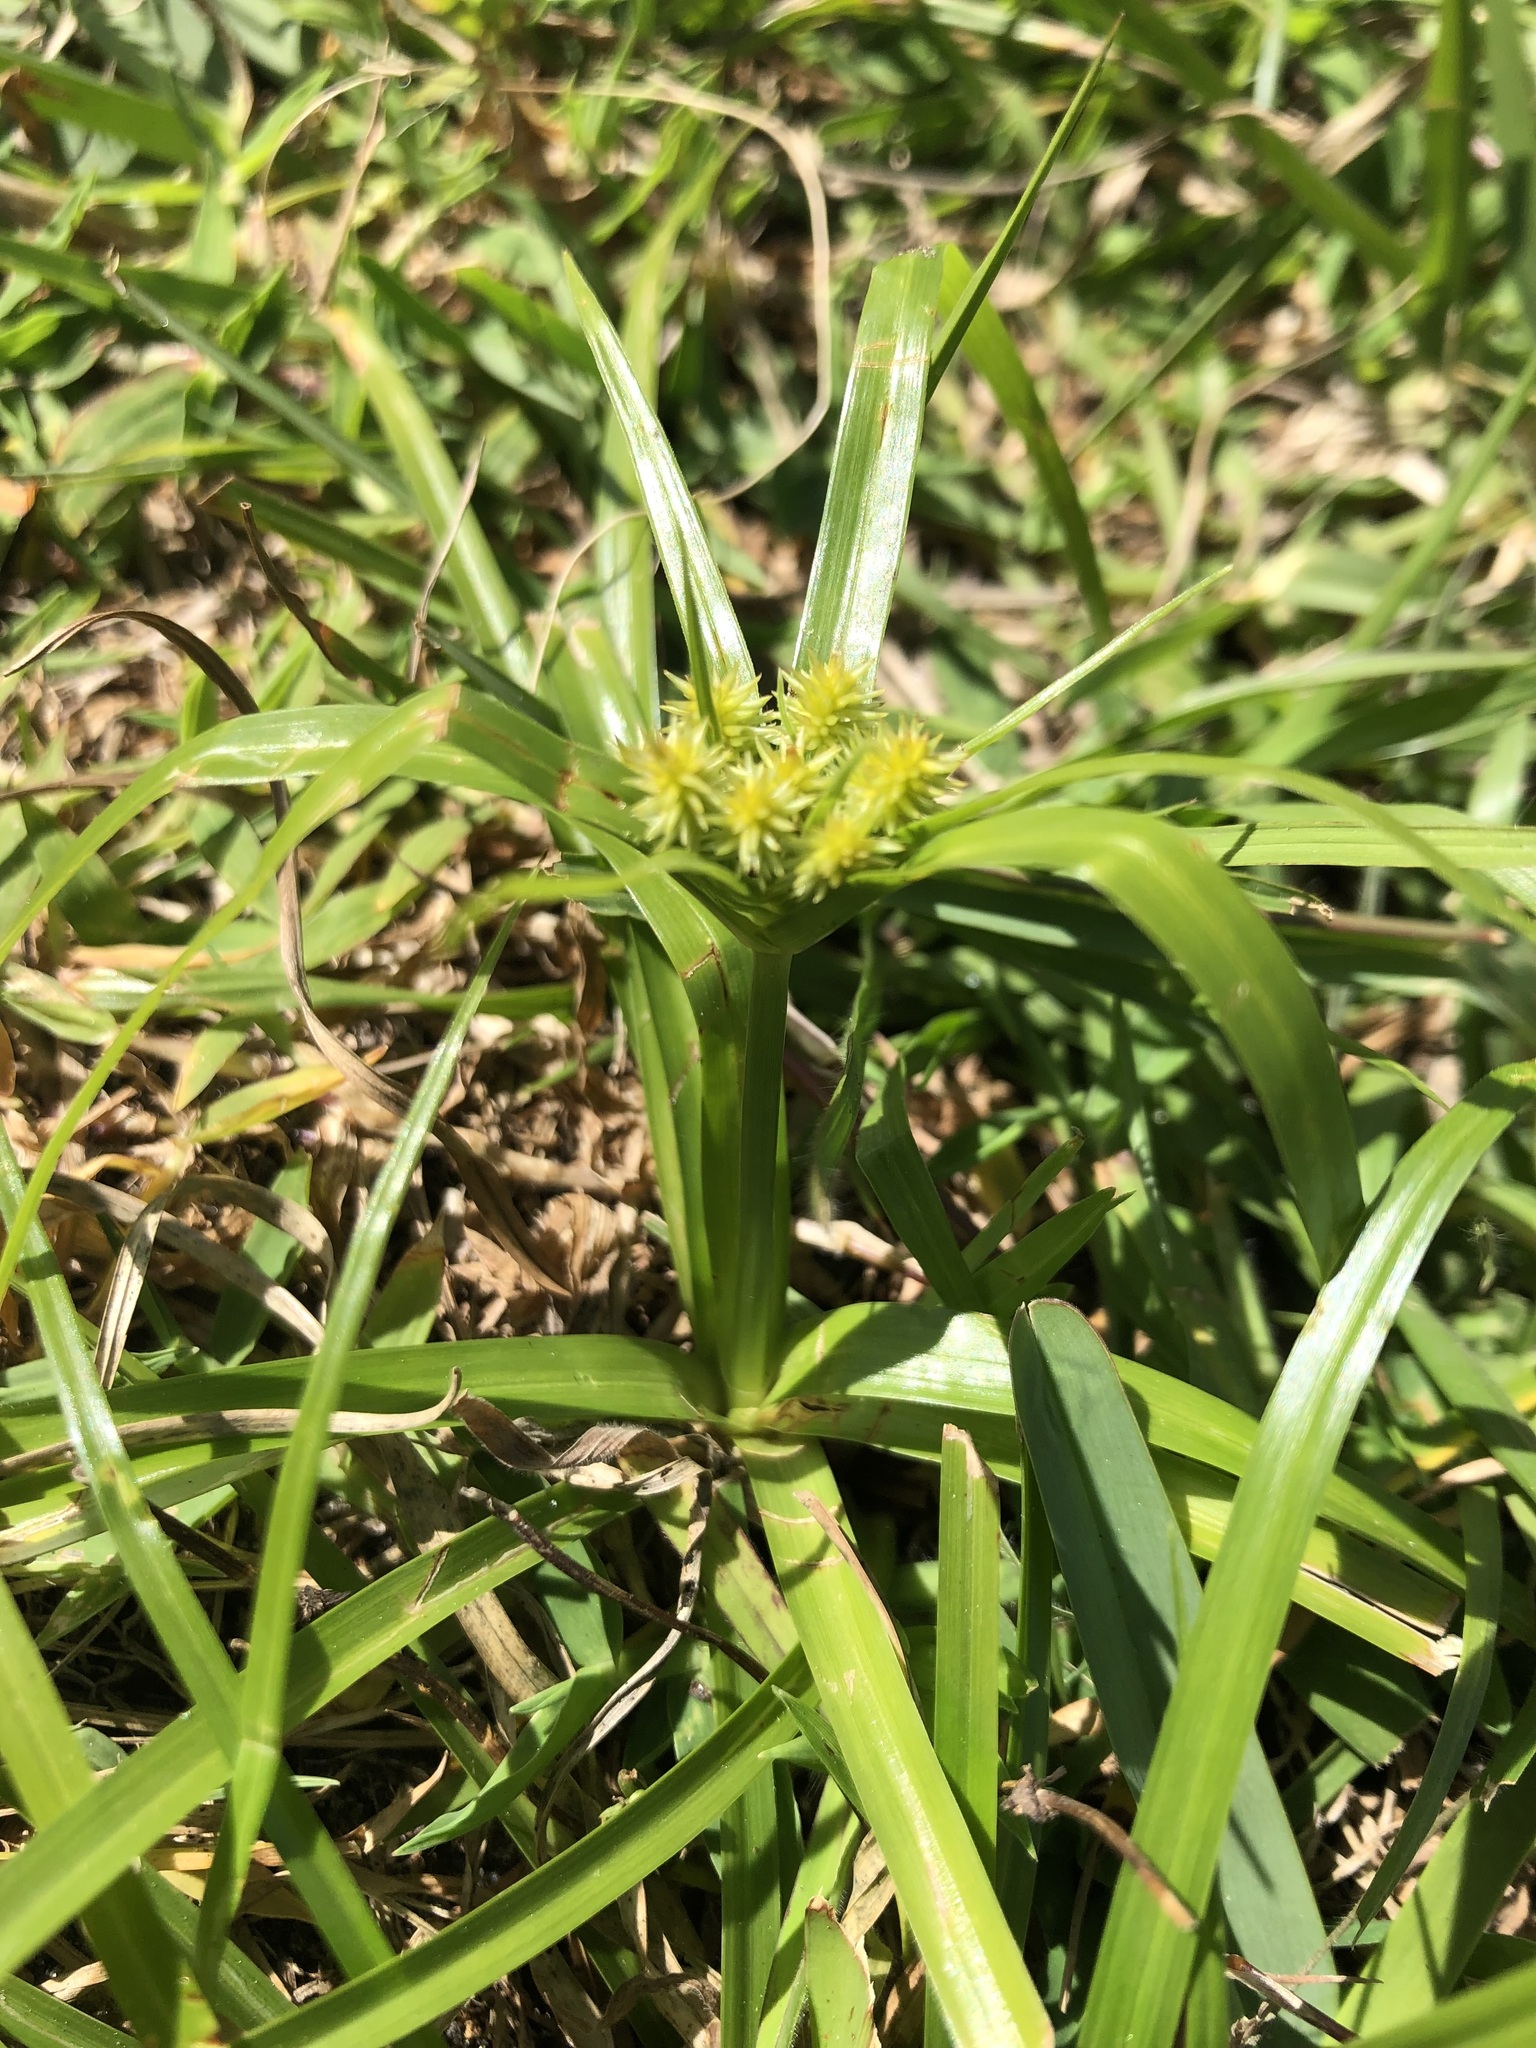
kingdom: Plantae
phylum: Tracheophyta
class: Liliopsida
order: Poales
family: Cyperaceae
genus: Cyperus
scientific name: Cyperus croceus
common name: Baldwin's flatsedge
